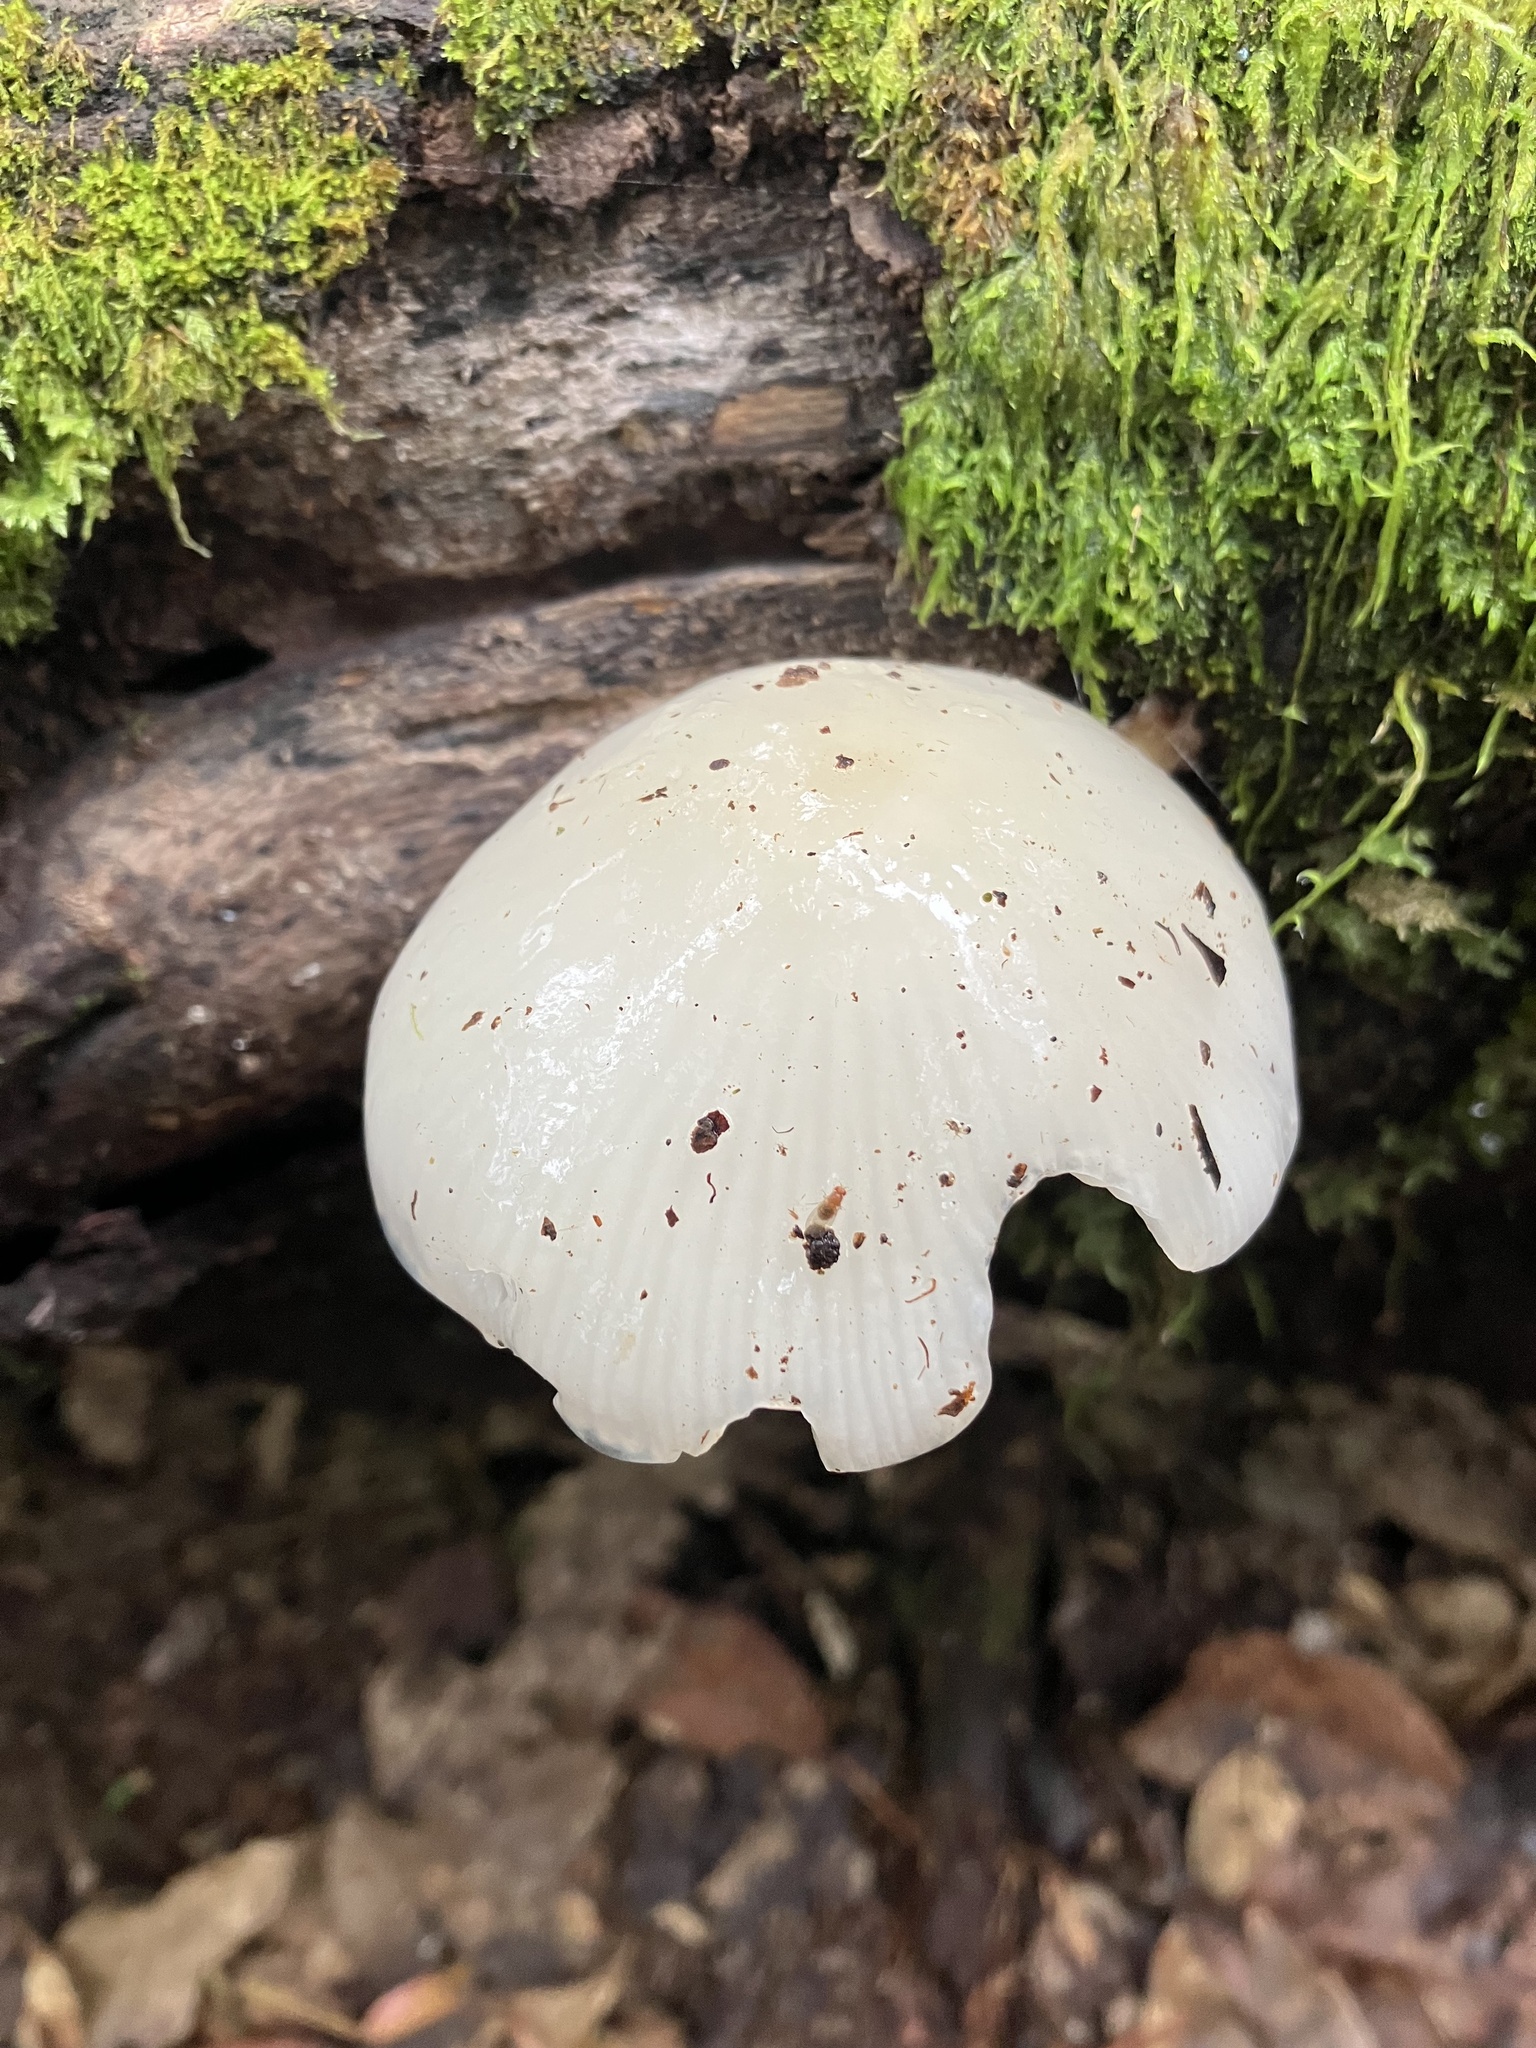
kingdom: Fungi
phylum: Basidiomycota
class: Agaricomycetes
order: Agaricales
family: Physalacriaceae
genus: Mucidula
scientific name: Mucidula mucida
